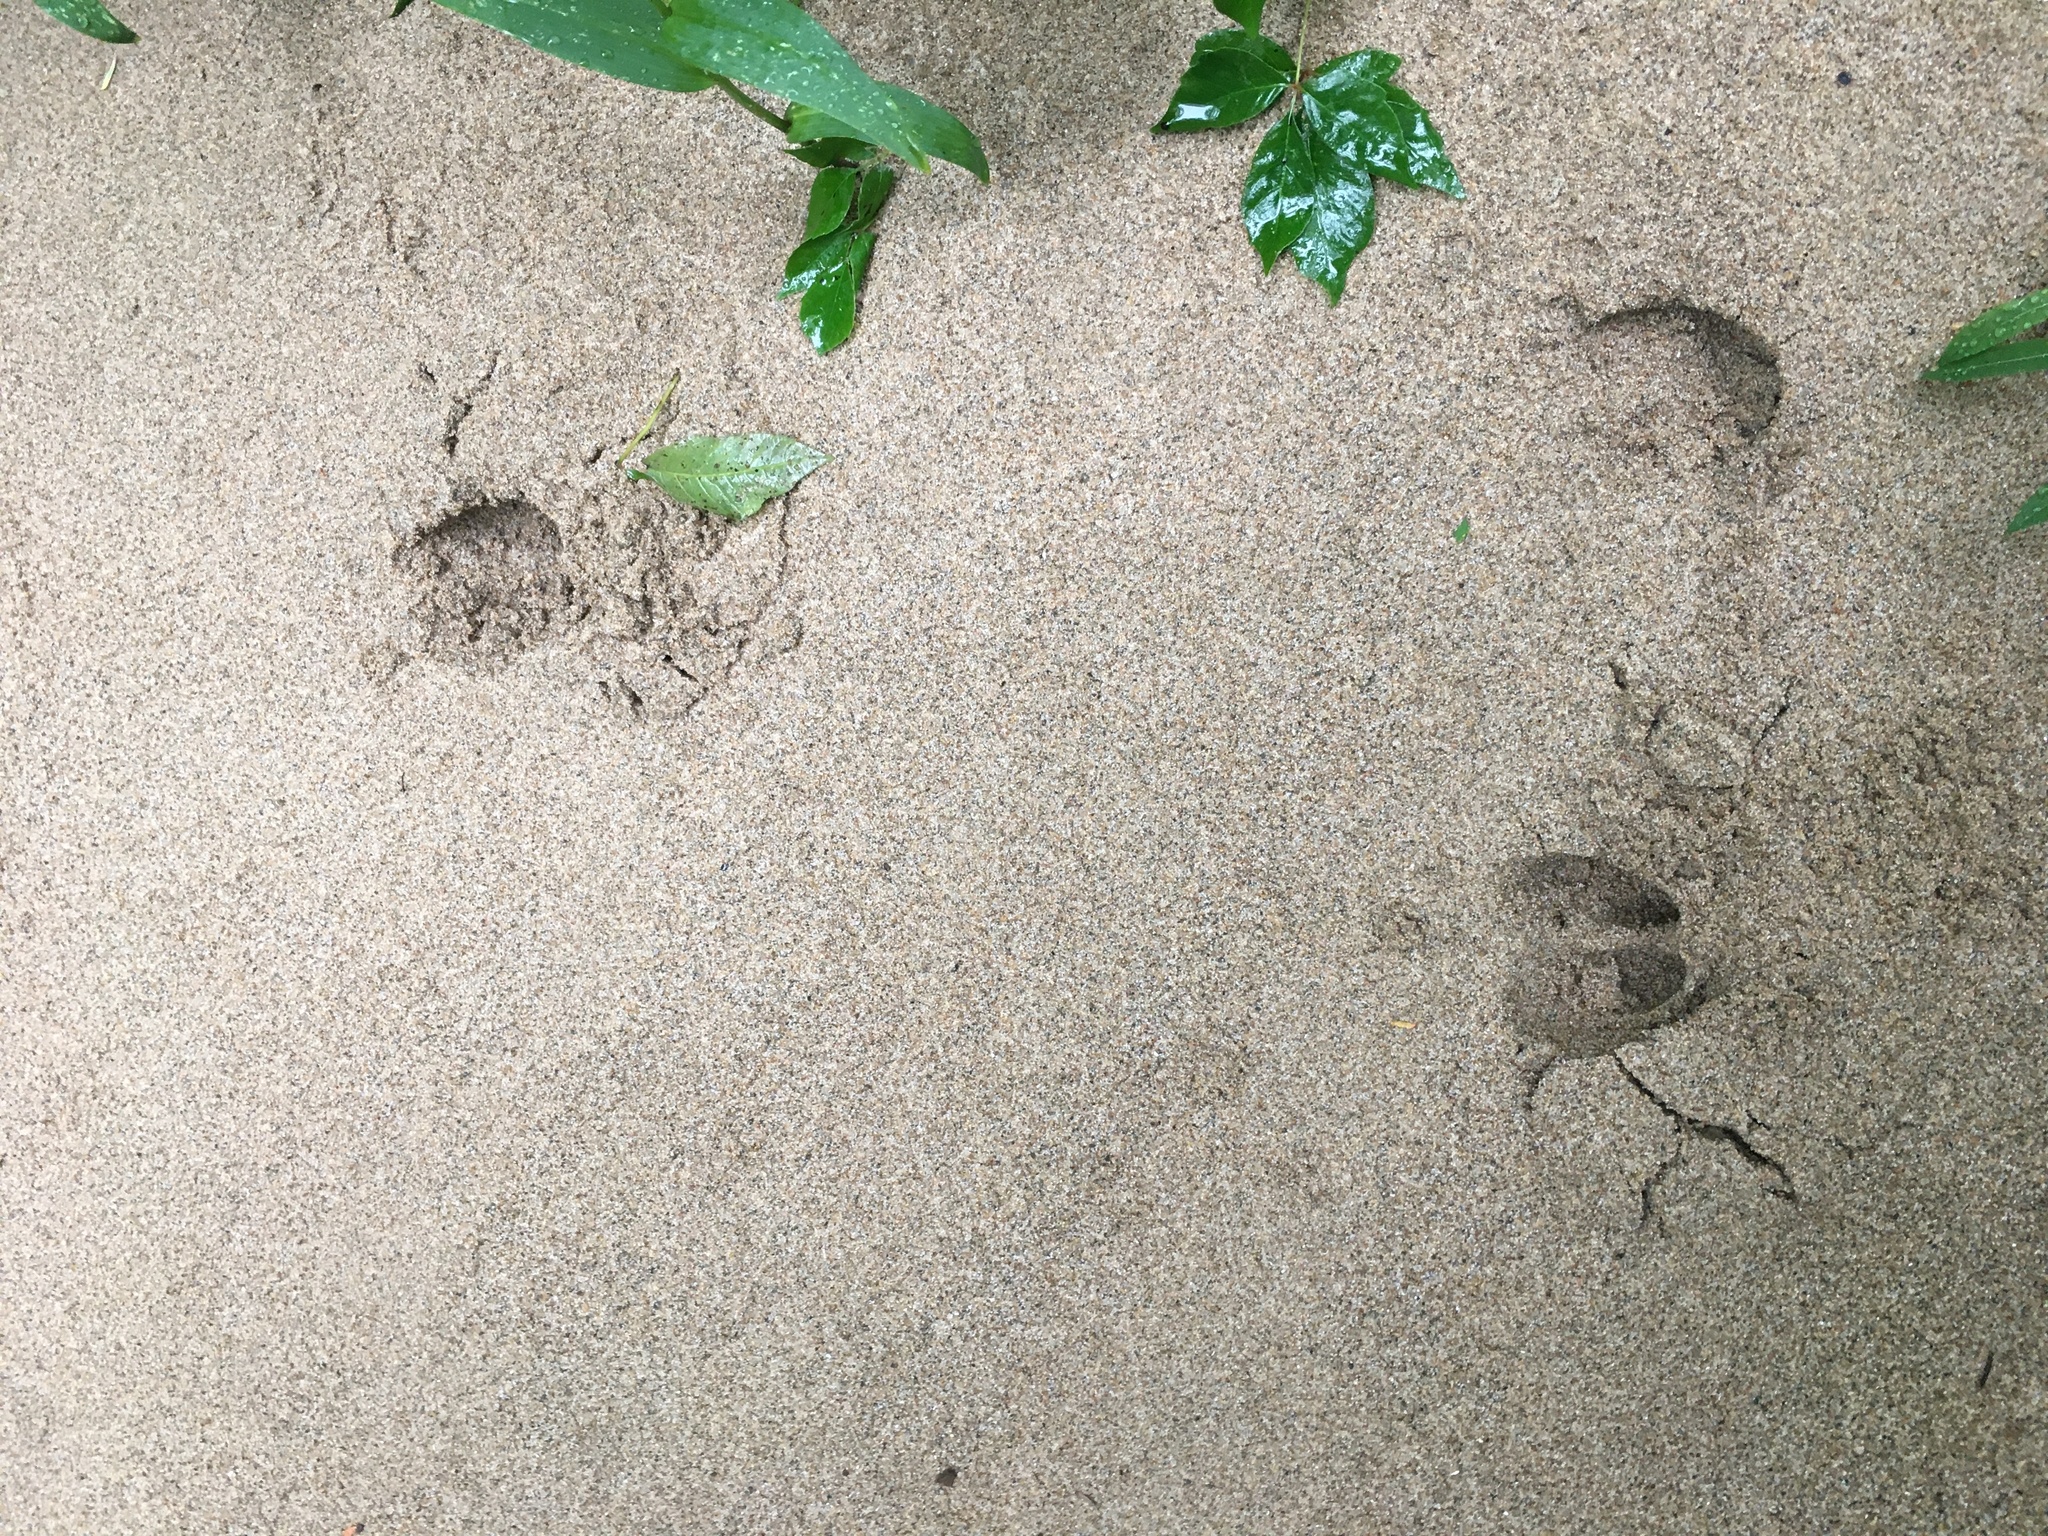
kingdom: Animalia
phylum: Chordata
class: Mammalia
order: Artiodactyla
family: Cervidae
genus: Odocoileus
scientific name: Odocoileus virginianus
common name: White-tailed deer
